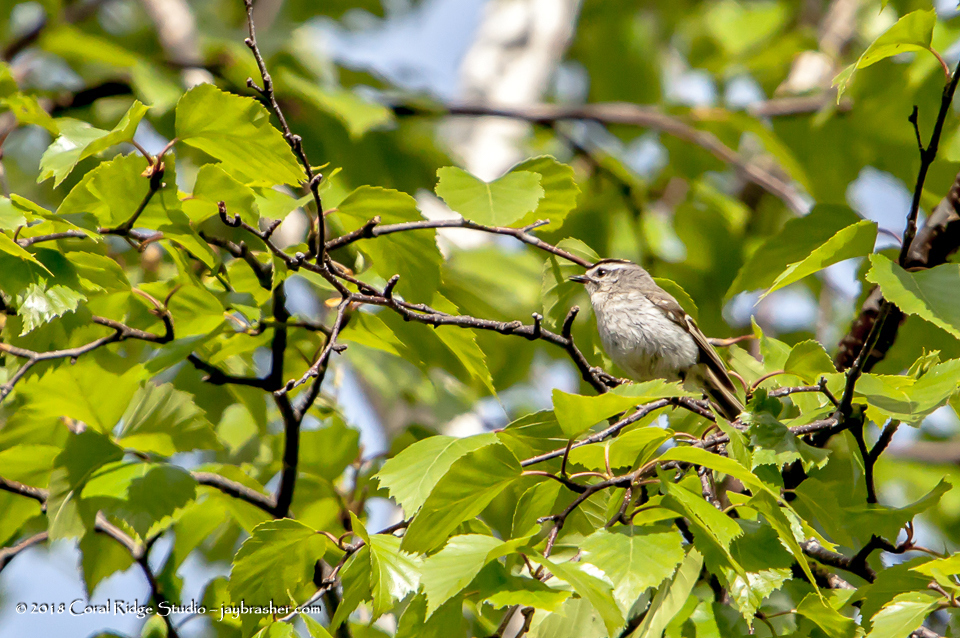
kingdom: Animalia
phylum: Chordata
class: Aves
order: Passeriformes
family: Regulidae
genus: Regulus
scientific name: Regulus satrapa
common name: Golden-crowned kinglet
